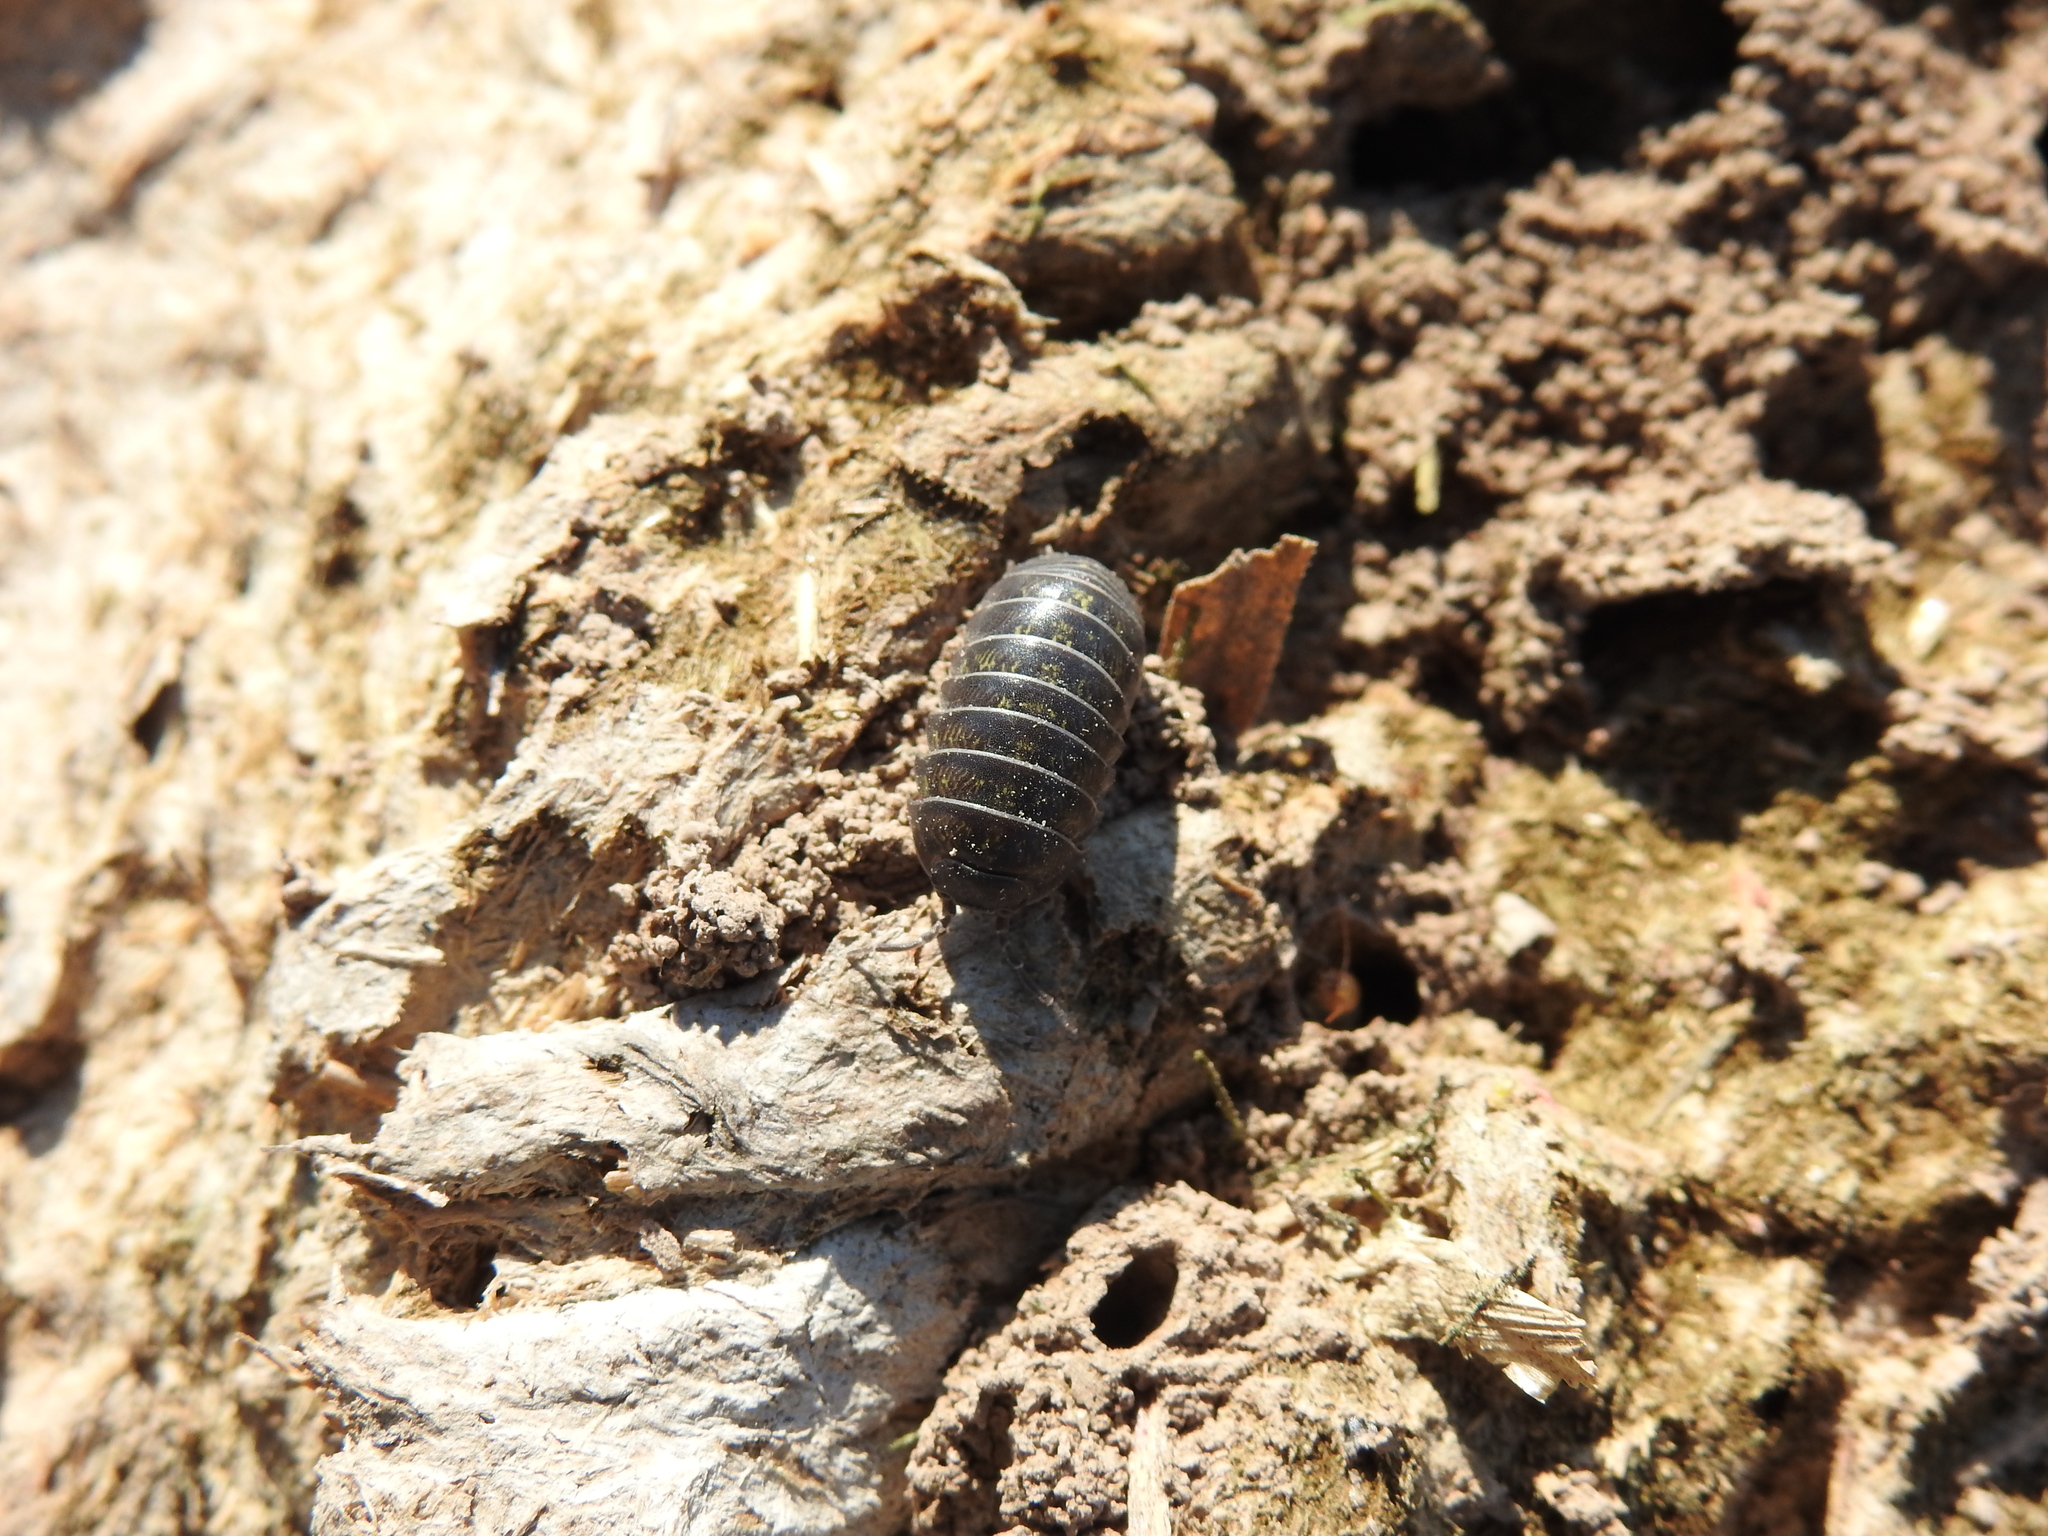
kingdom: Animalia
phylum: Arthropoda
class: Malacostraca
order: Isopoda
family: Armadillidiidae
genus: Armadillidium
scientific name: Armadillidium vulgare
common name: Common pill woodlouse
